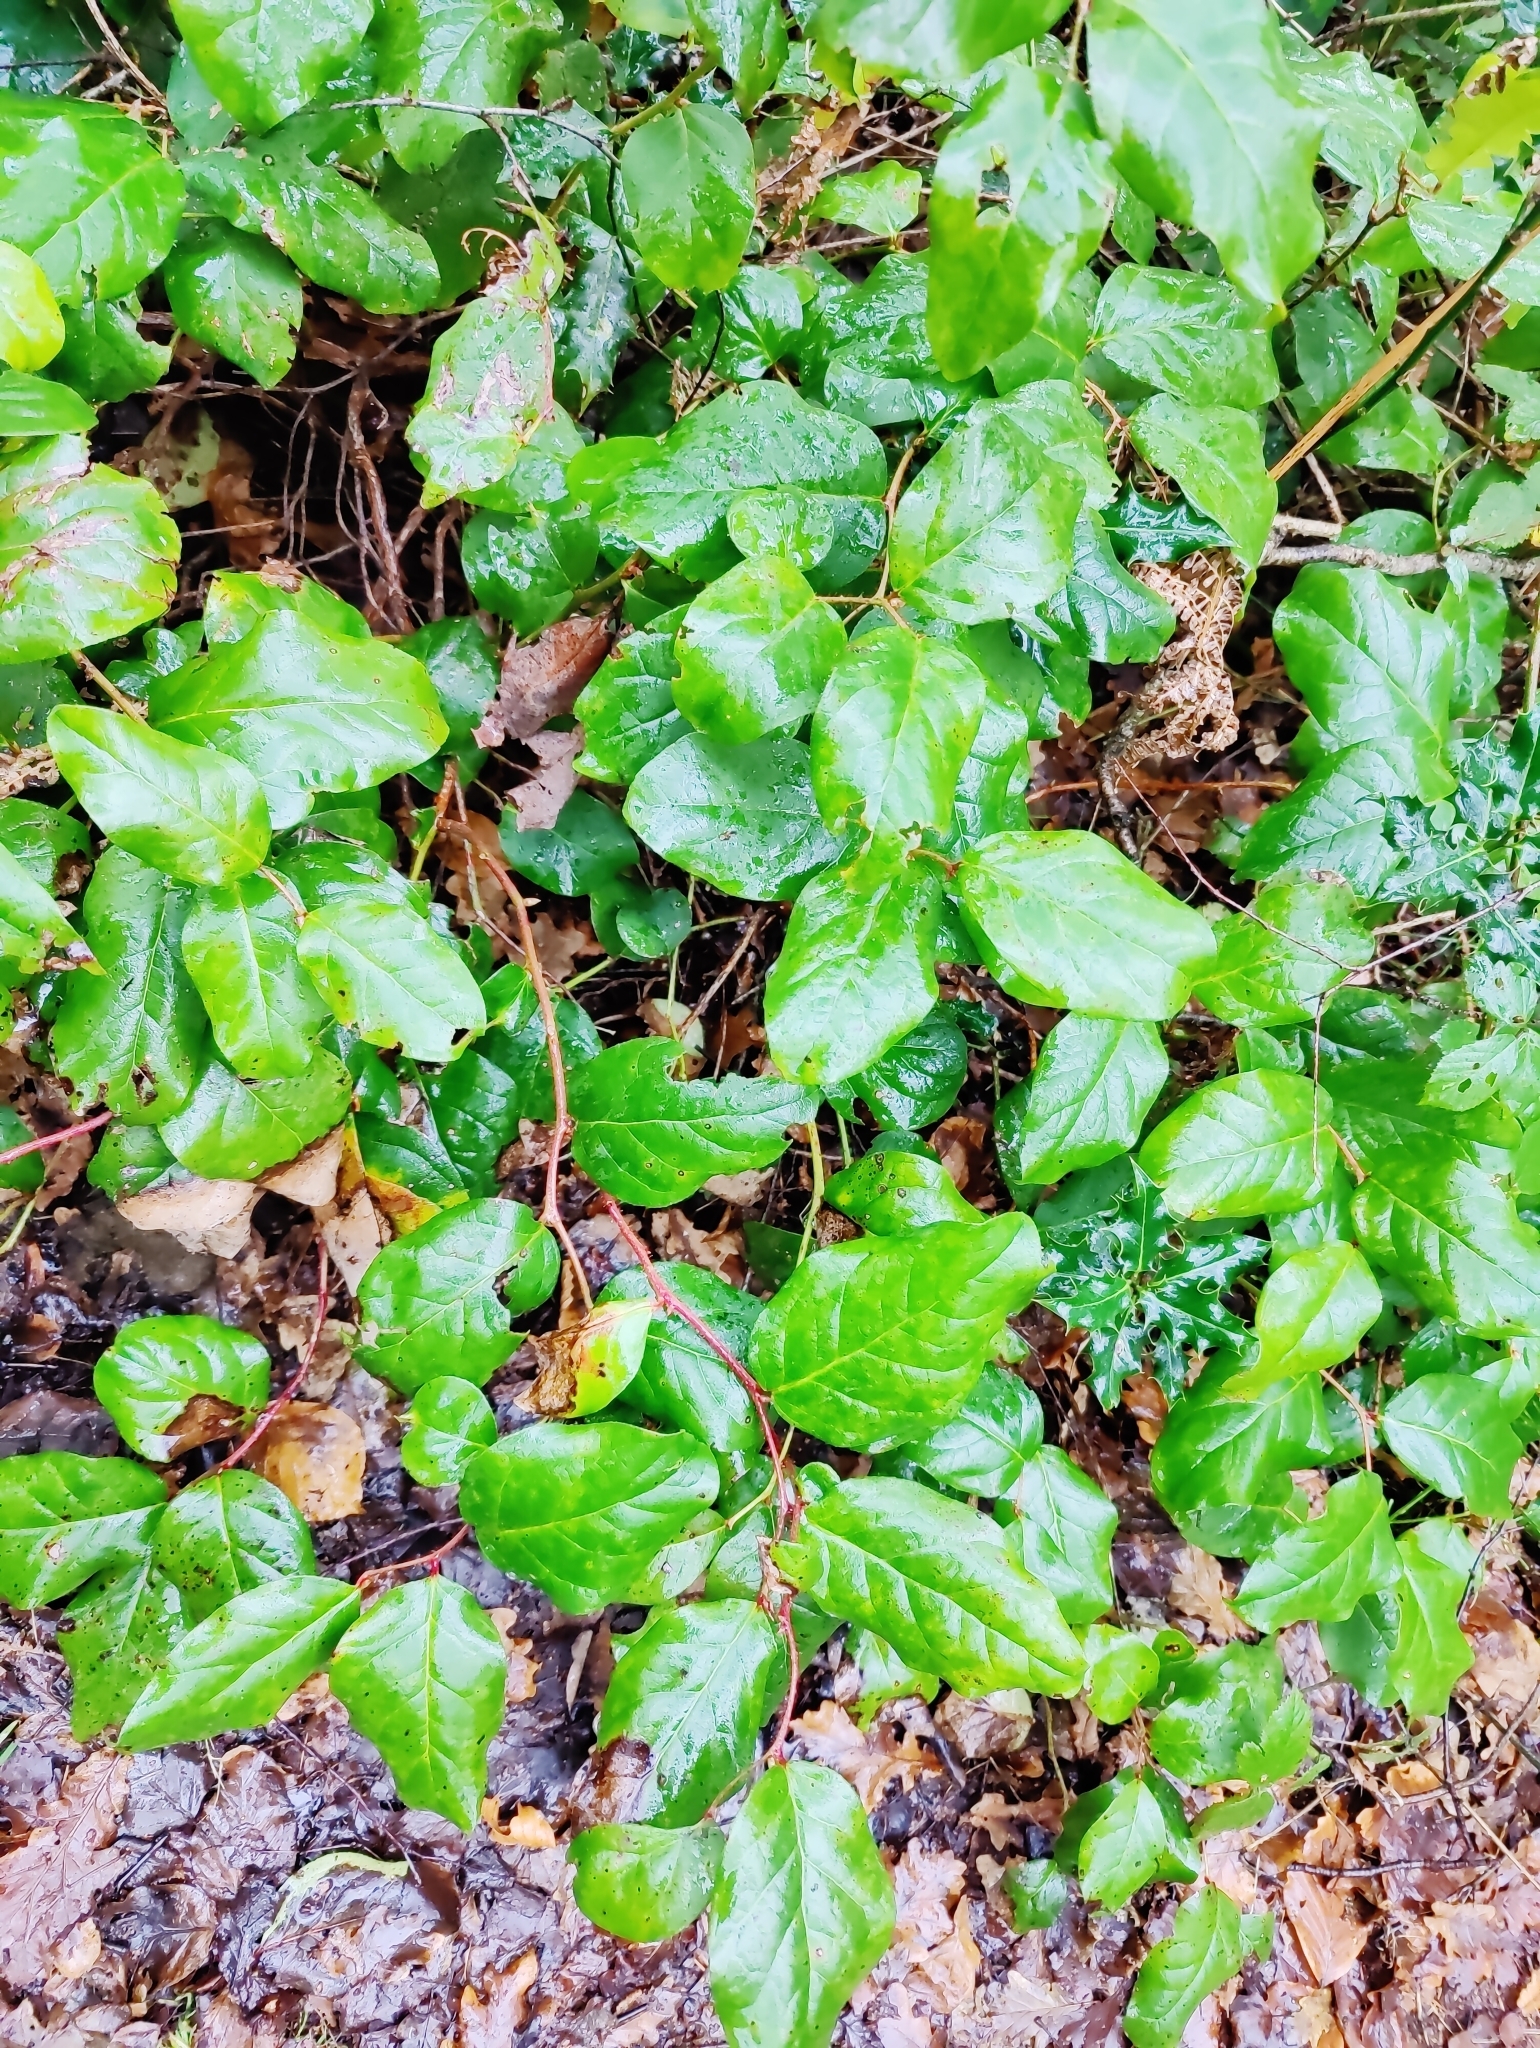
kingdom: Plantae
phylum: Tracheophyta
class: Magnoliopsida
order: Ericales
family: Ericaceae
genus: Gaultheria
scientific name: Gaultheria shallon
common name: Shallon
